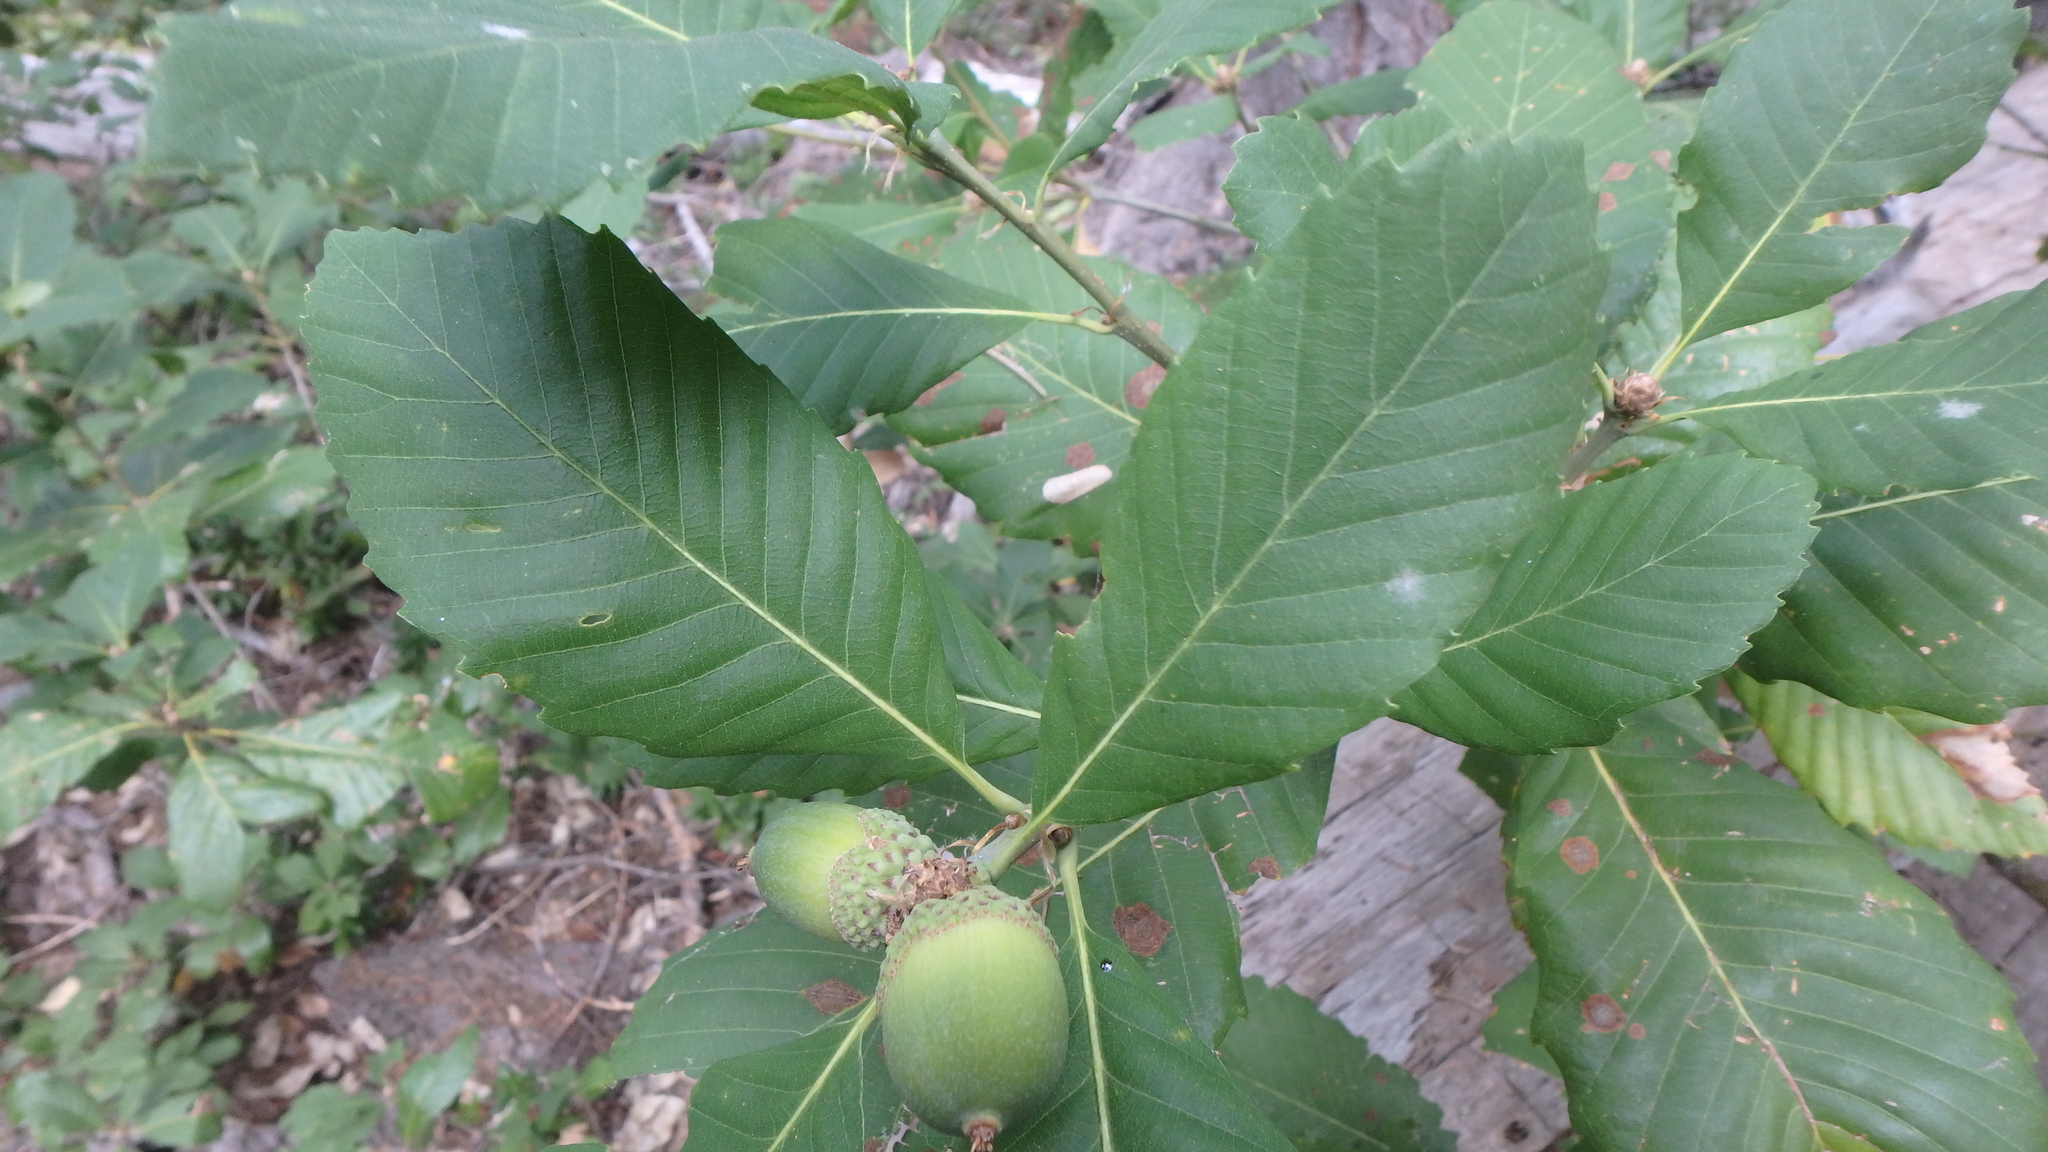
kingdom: Plantae
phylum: Tracheophyta
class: Magnoliopsida
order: Fagales
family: Fagaceae
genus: Quercus
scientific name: Quercus sadleriana
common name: Deer oak
